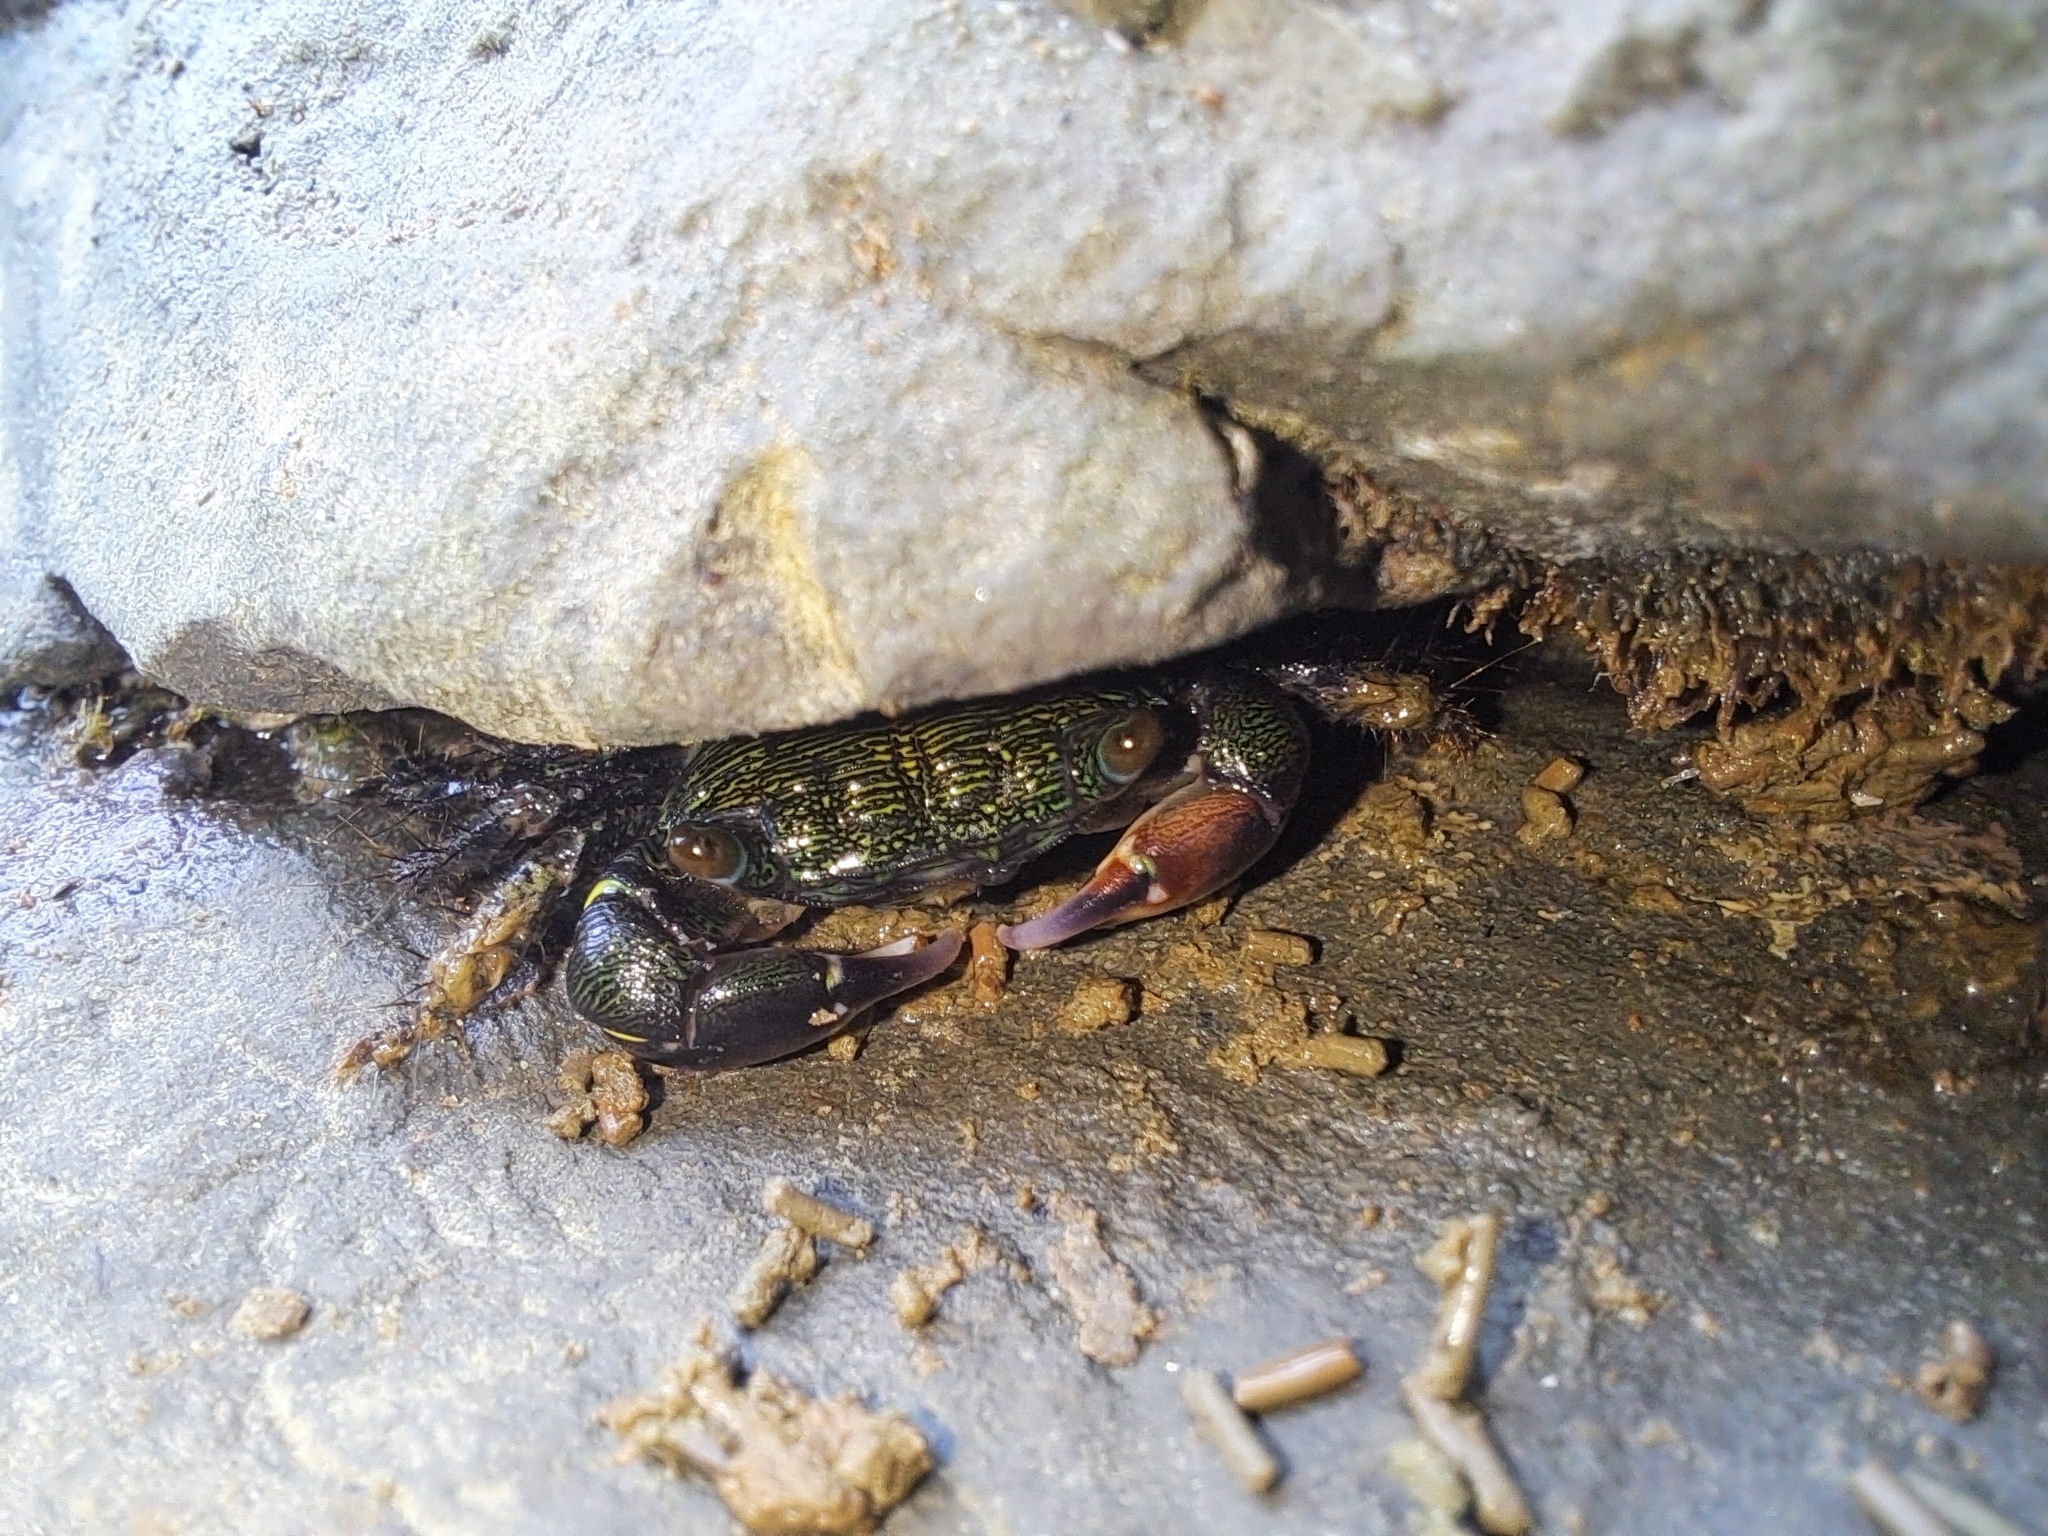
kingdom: Animalia
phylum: Arthropoda
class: Malacostraca
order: Decapoda
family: Grapsidae
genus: Pachygrapsus
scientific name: Pachygrapsus socius
